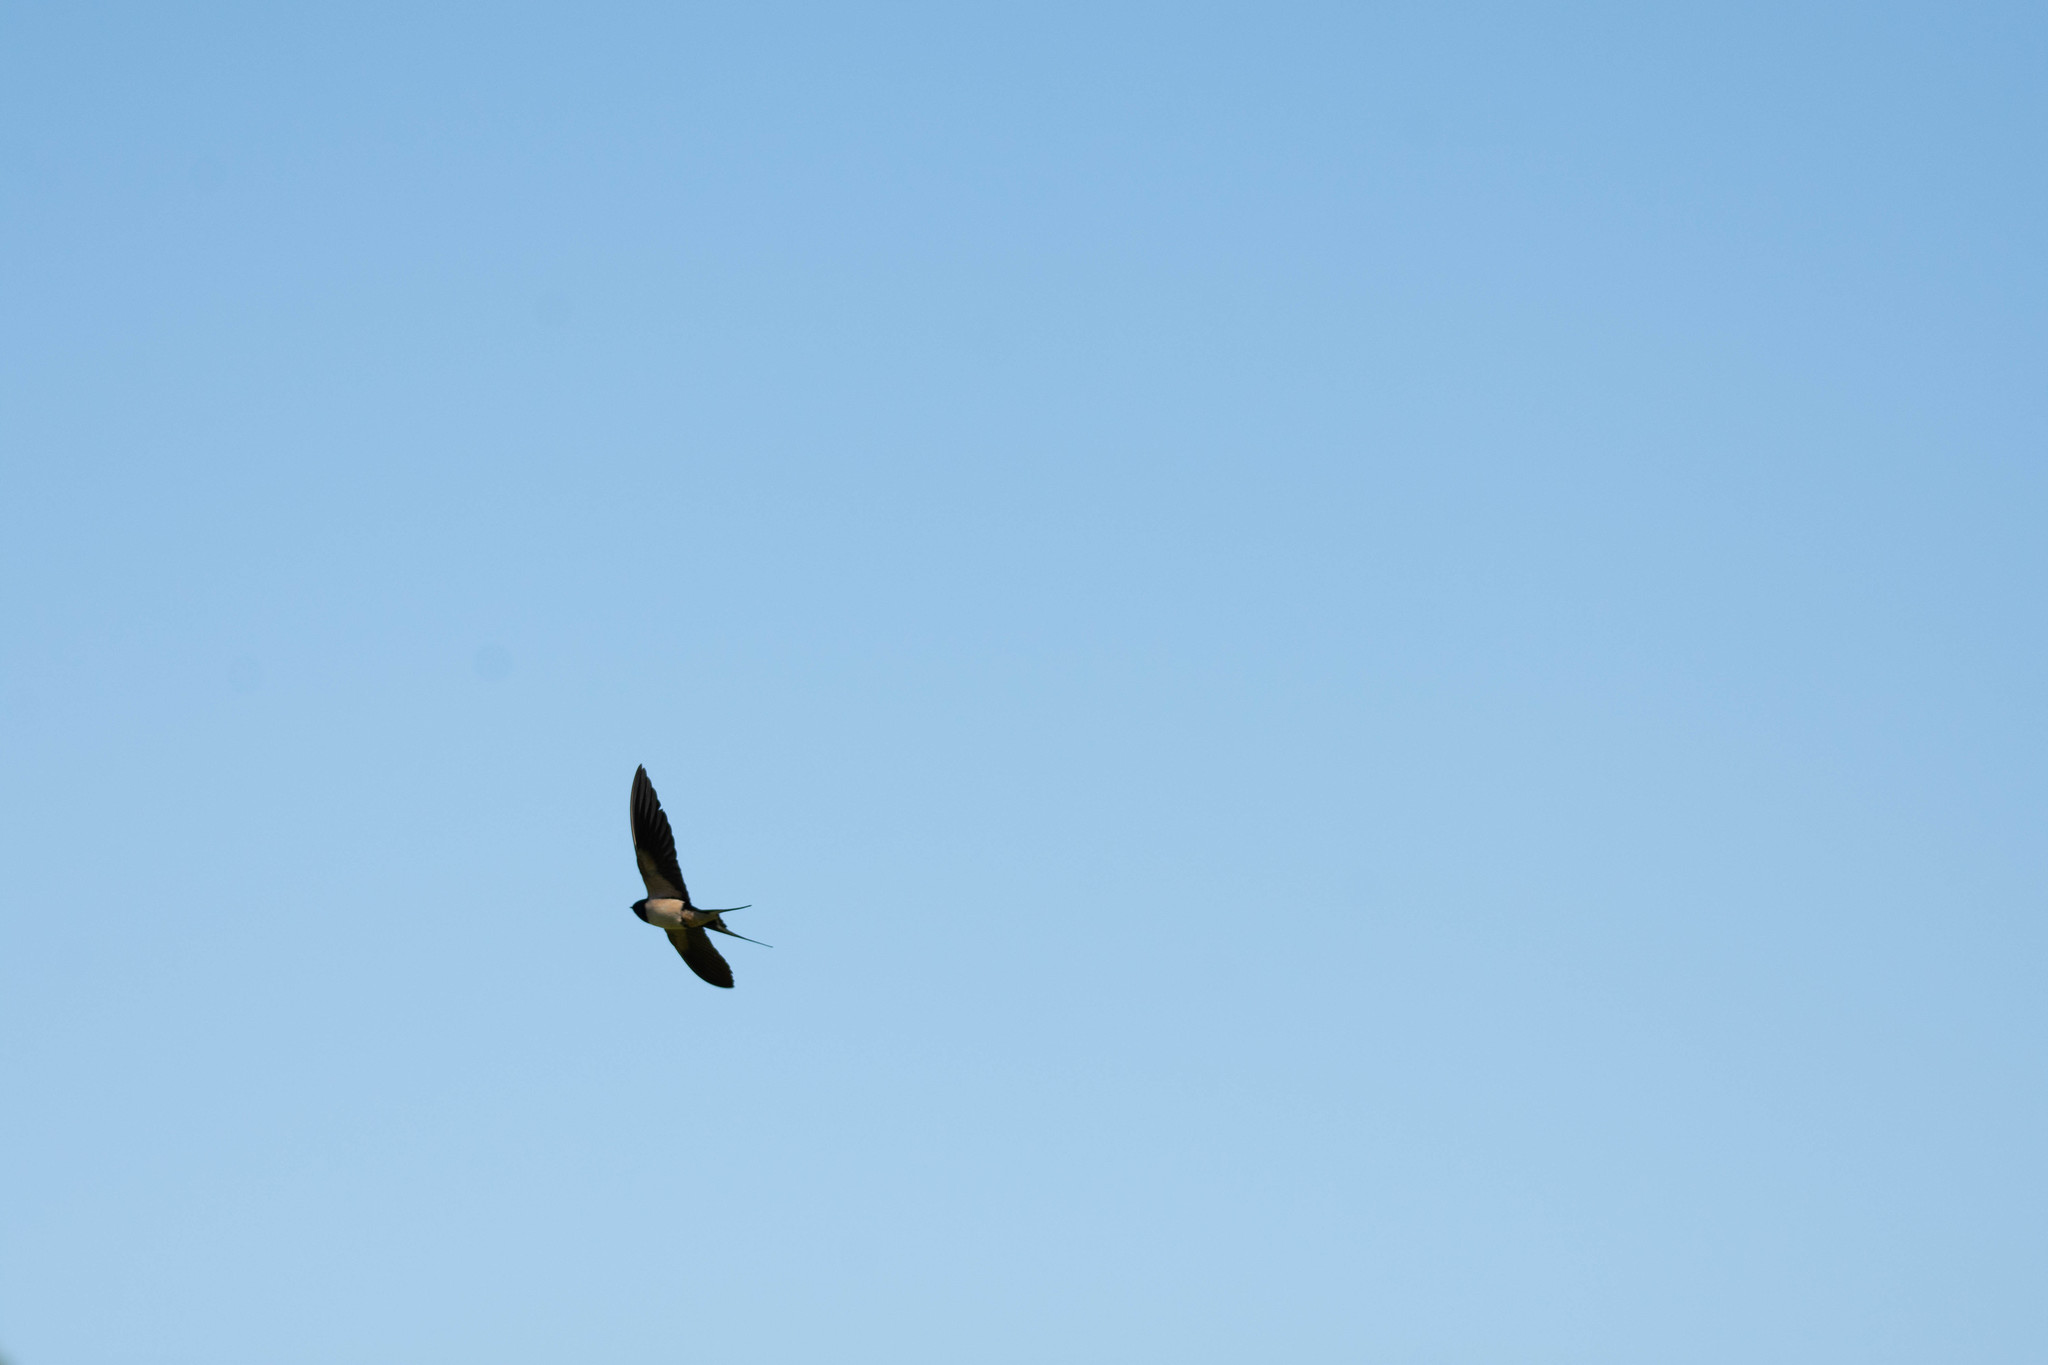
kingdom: Animalia
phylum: Chordata
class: Aves
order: Passeriformes
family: Hirundinidae
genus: Hirundo
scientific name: Hirundo rustica
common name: Barn swallow
